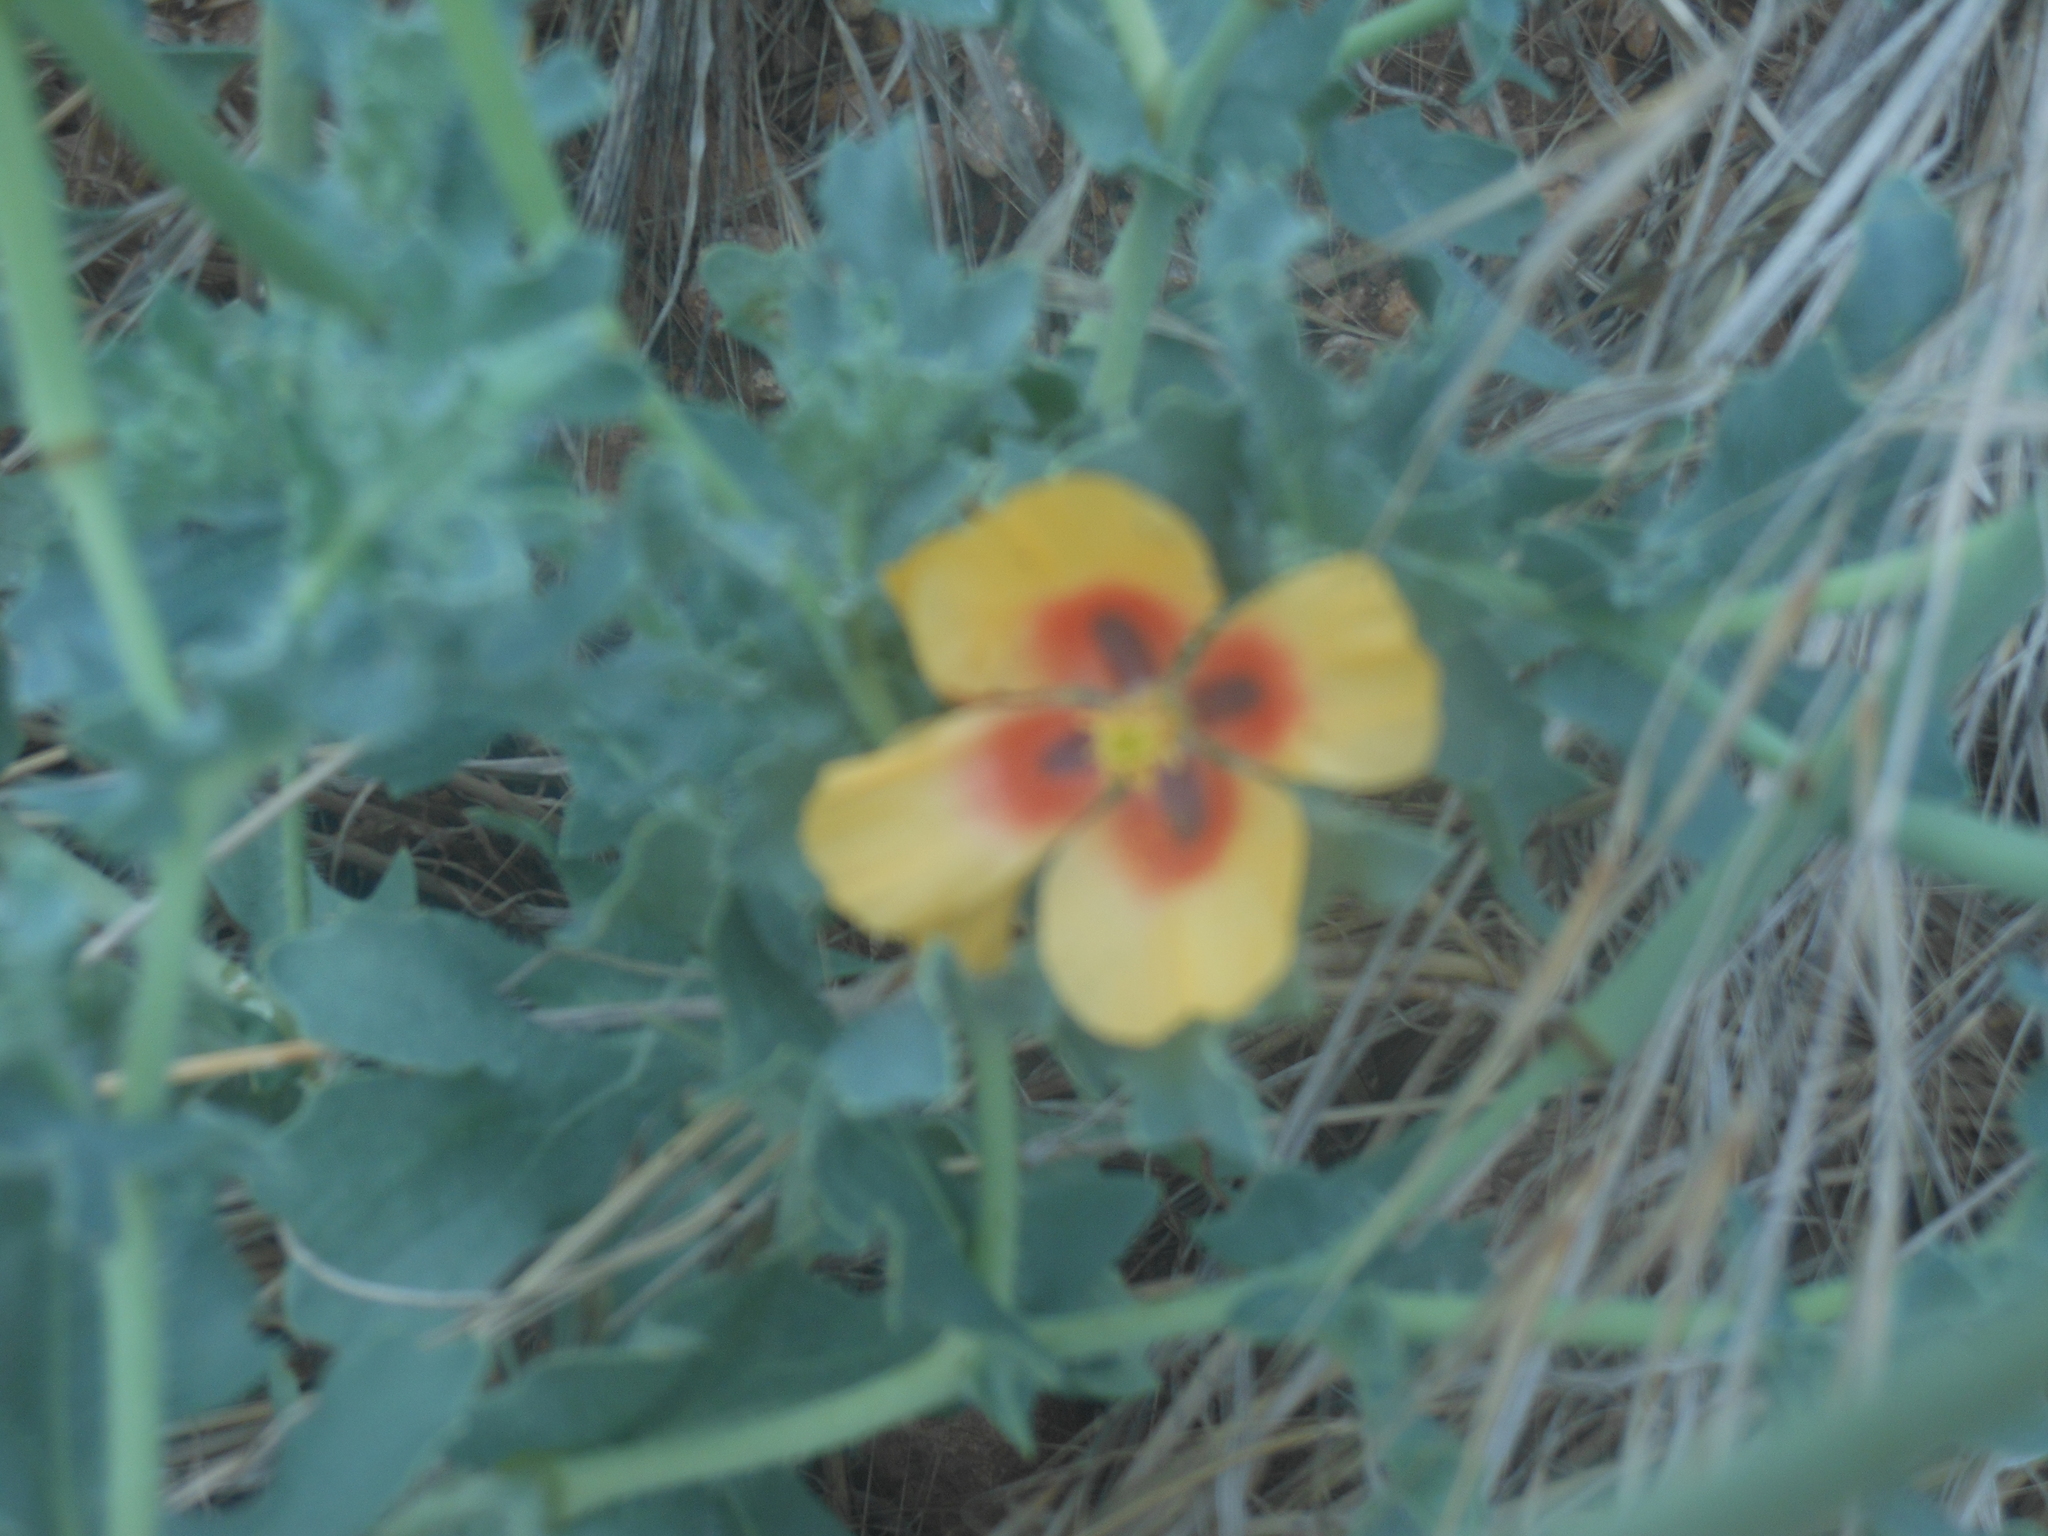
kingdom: Plantae
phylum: Tracheophyta
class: Magnoliopsida
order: Ranunculales
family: Papaveraceae
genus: Glaucium
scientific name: Glaucium corniculatum
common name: Red horned-poppy
